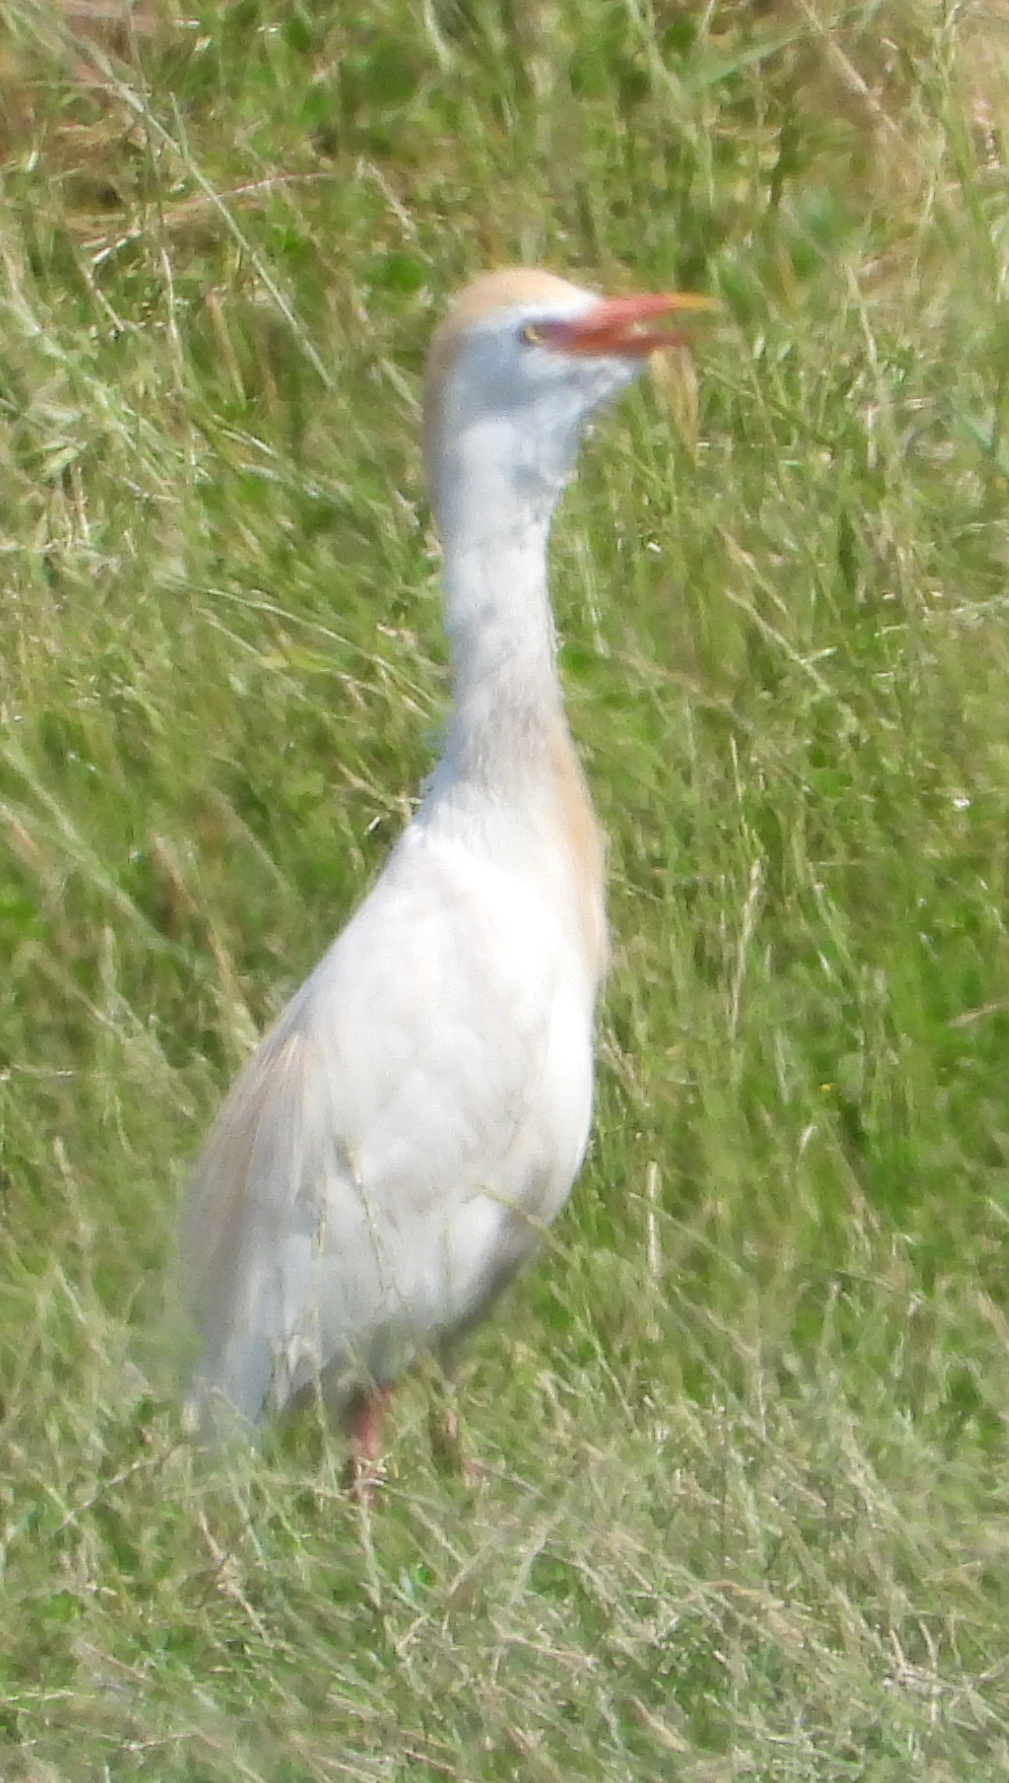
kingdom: Animalia
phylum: Chordata
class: Aves
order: Pelecaniformes
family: Ardeidae
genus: Bubulcus
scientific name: Bubulcus ibis
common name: Cattle egret
